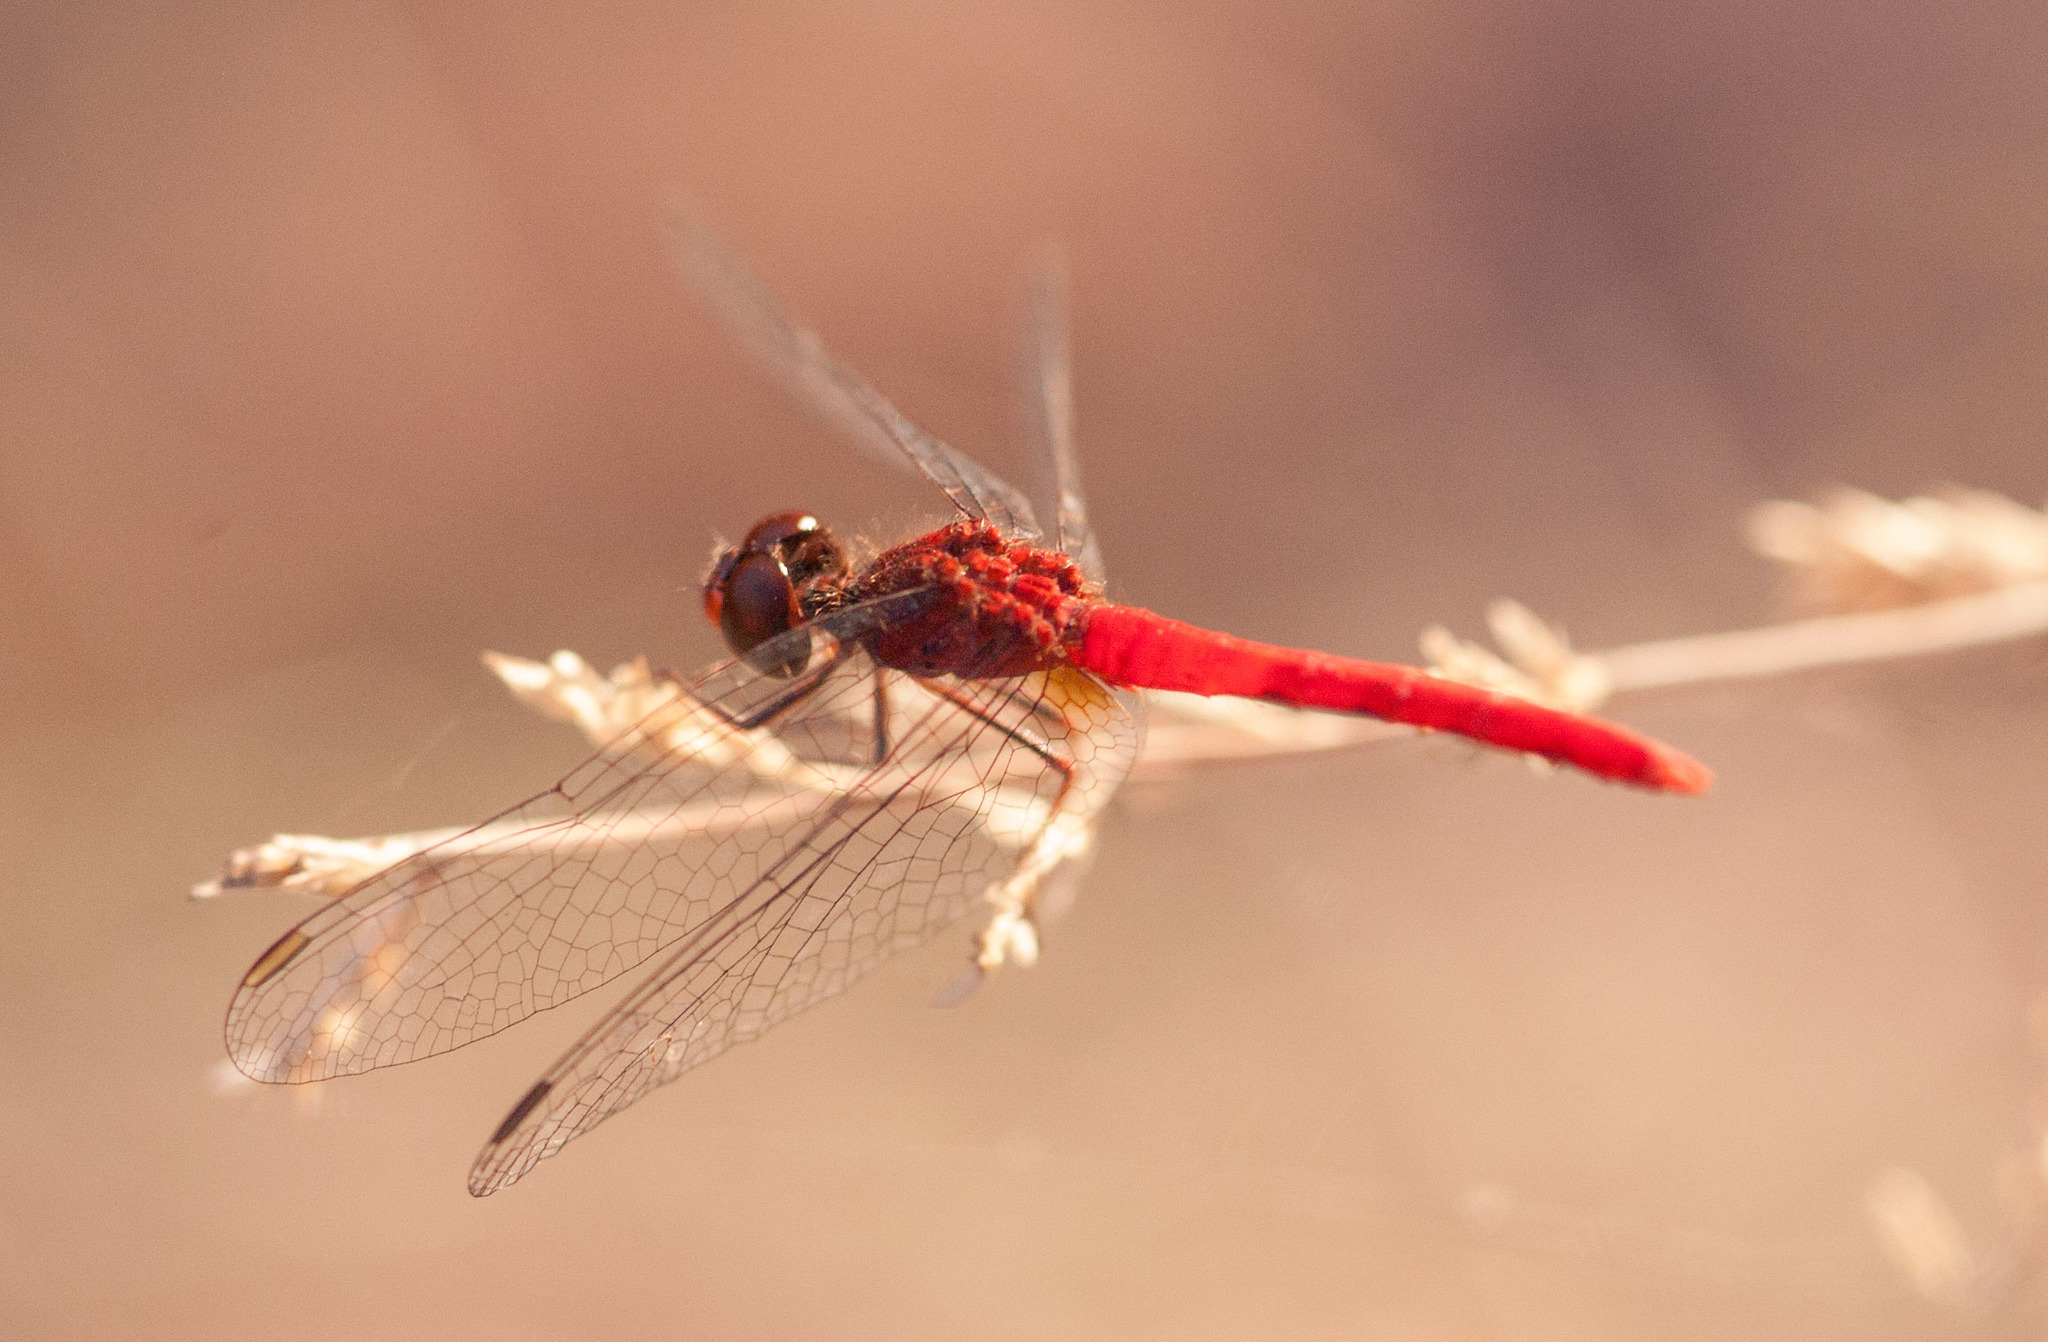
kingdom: Animalia
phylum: Arthropoda
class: Insecta
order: Odonata
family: Libellulidae
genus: Nannodiplax
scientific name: Nannodiplax rubra
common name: Pygmy percher
